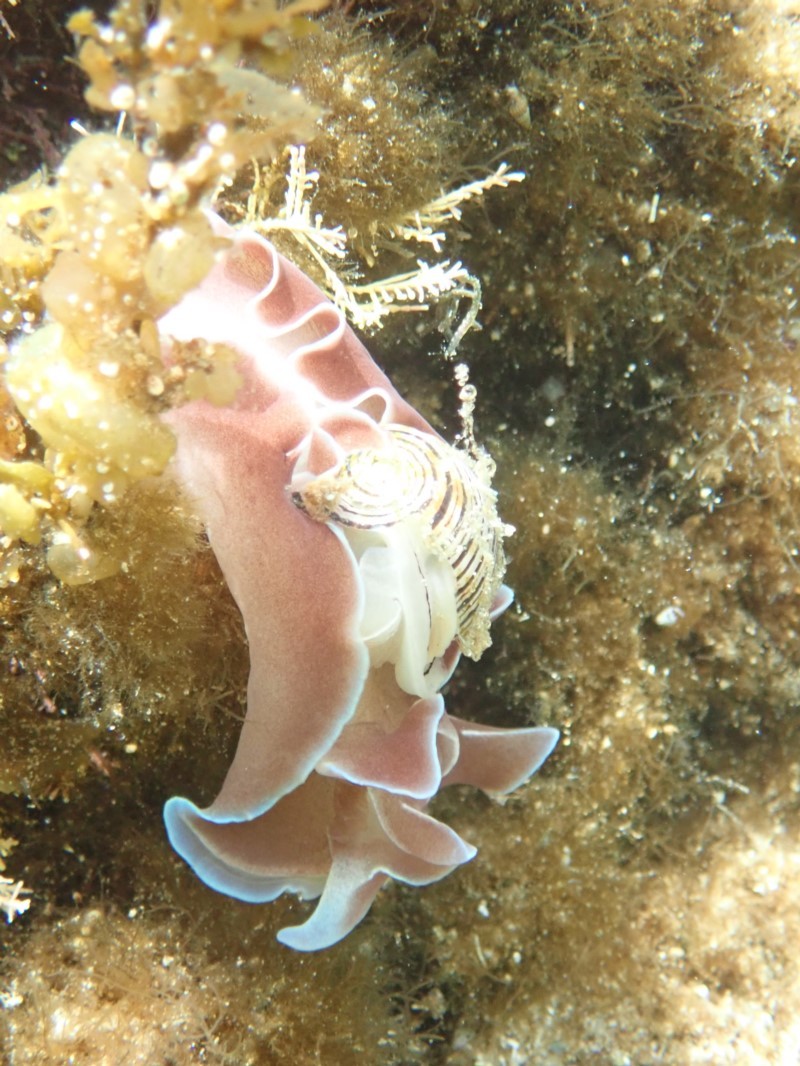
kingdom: Animalia
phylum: Mollusca
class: Gastropoda
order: Cephalaspidea
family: Aplustridae
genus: Hydatina
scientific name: Hydatina physis
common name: Brown-line paperbubble
